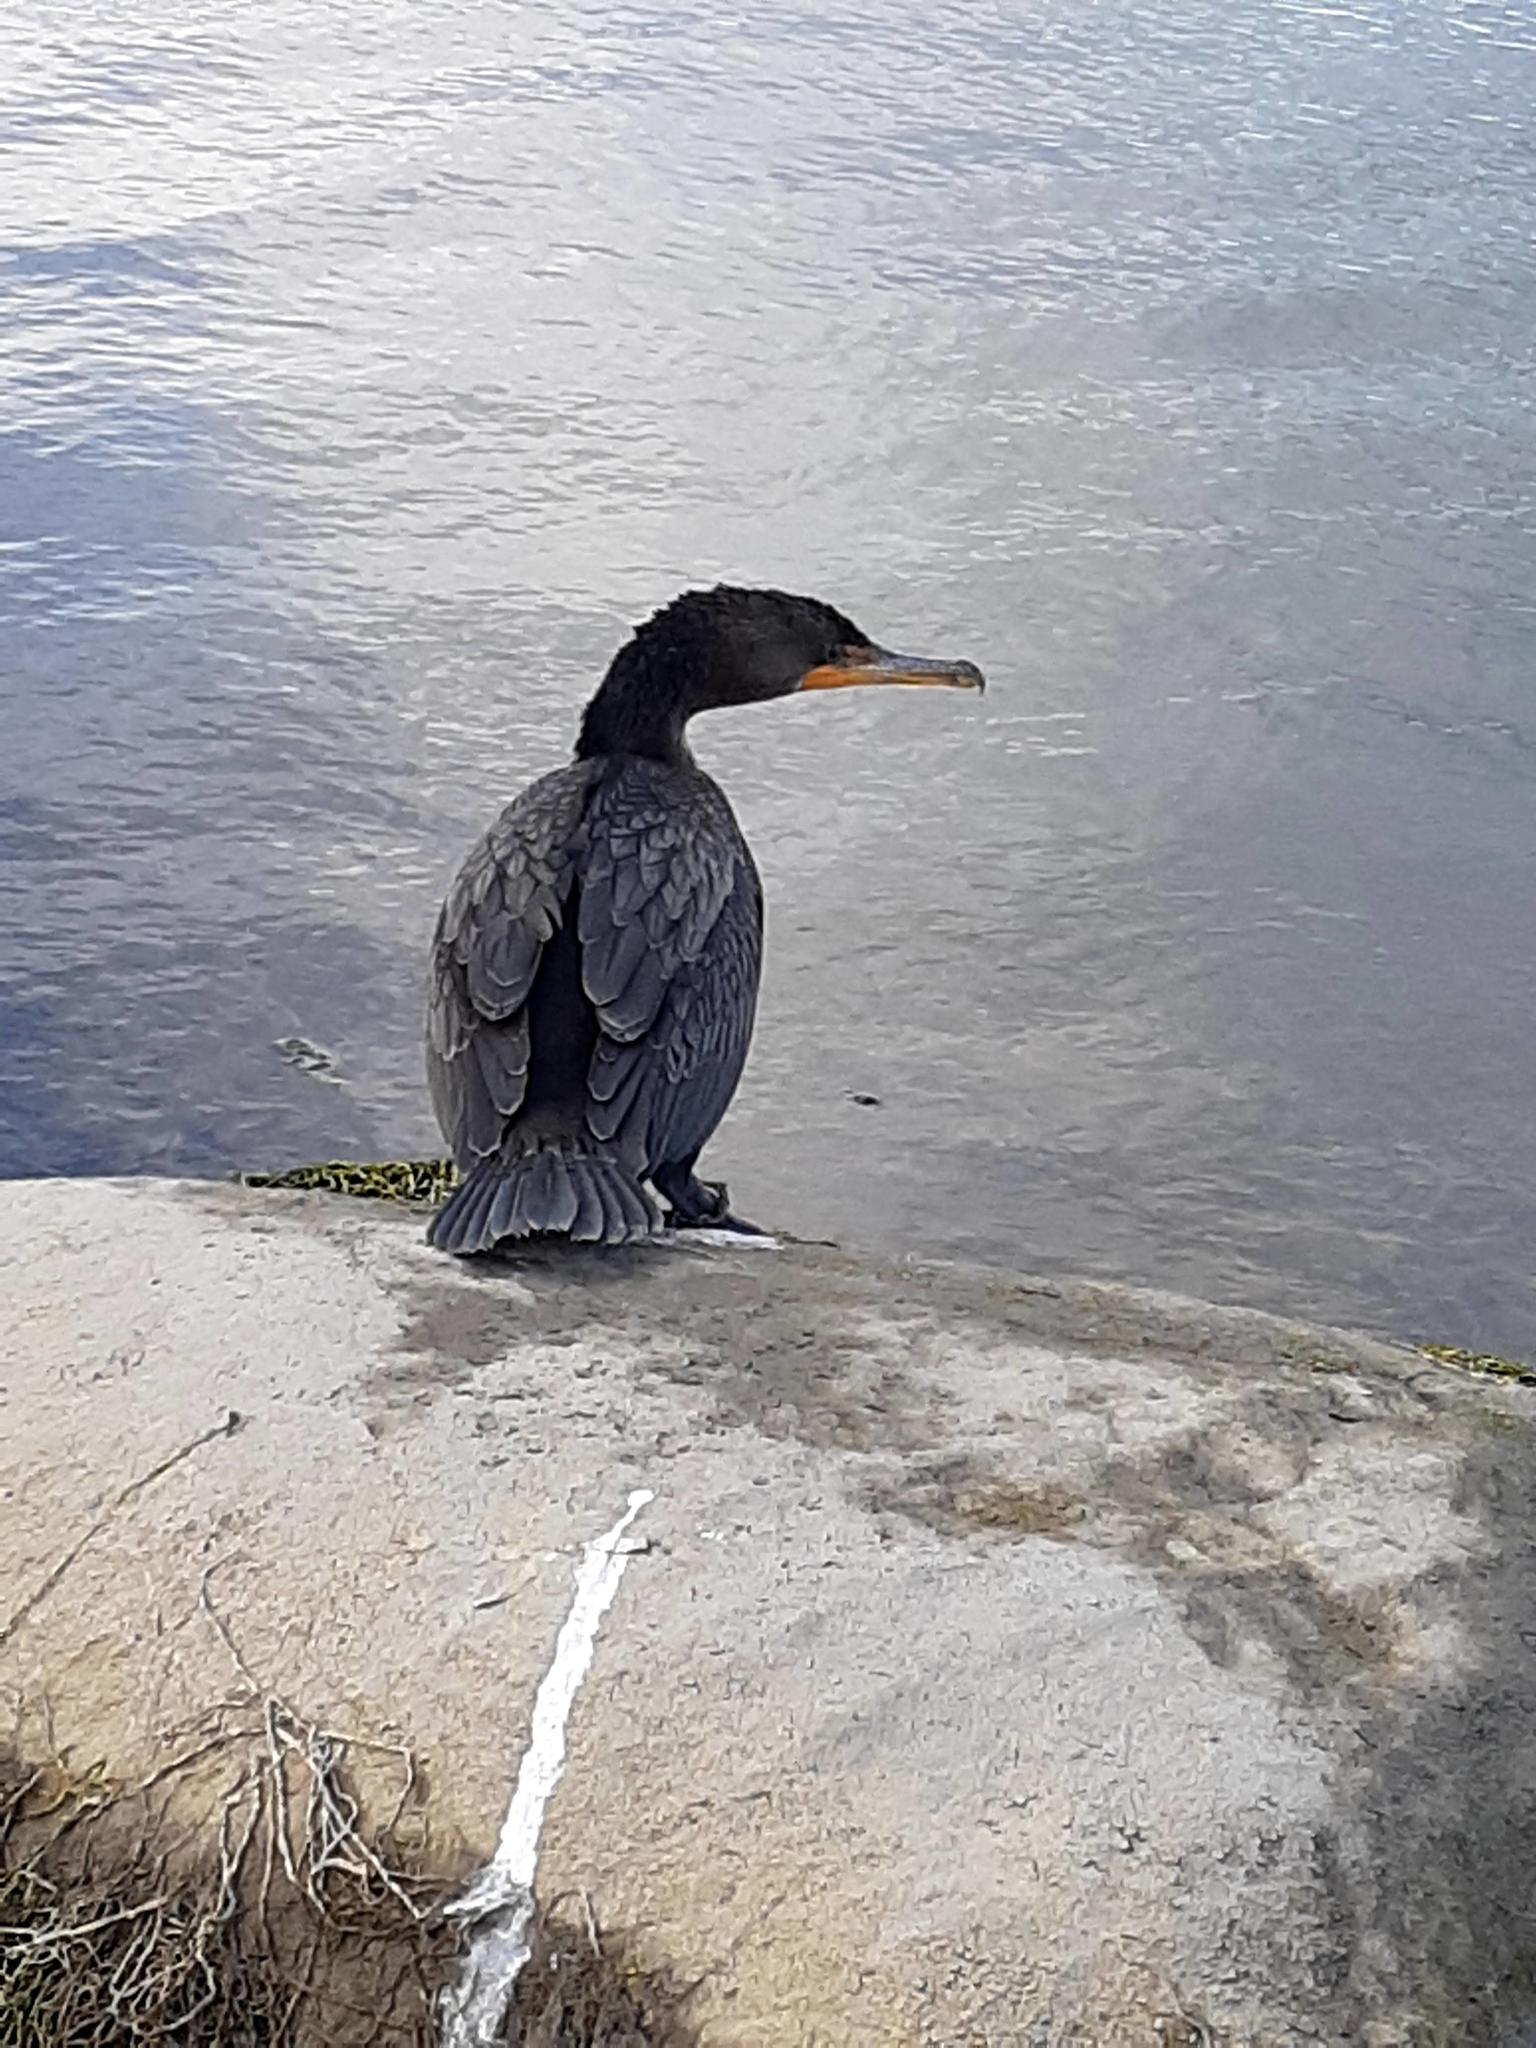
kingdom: Animalia
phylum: Chordata
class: Aves
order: Suliformes
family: Phalacrocoracidae
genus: Phalacrocorax
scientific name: Phalacrocorax auritus
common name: Double-crested cormorant
